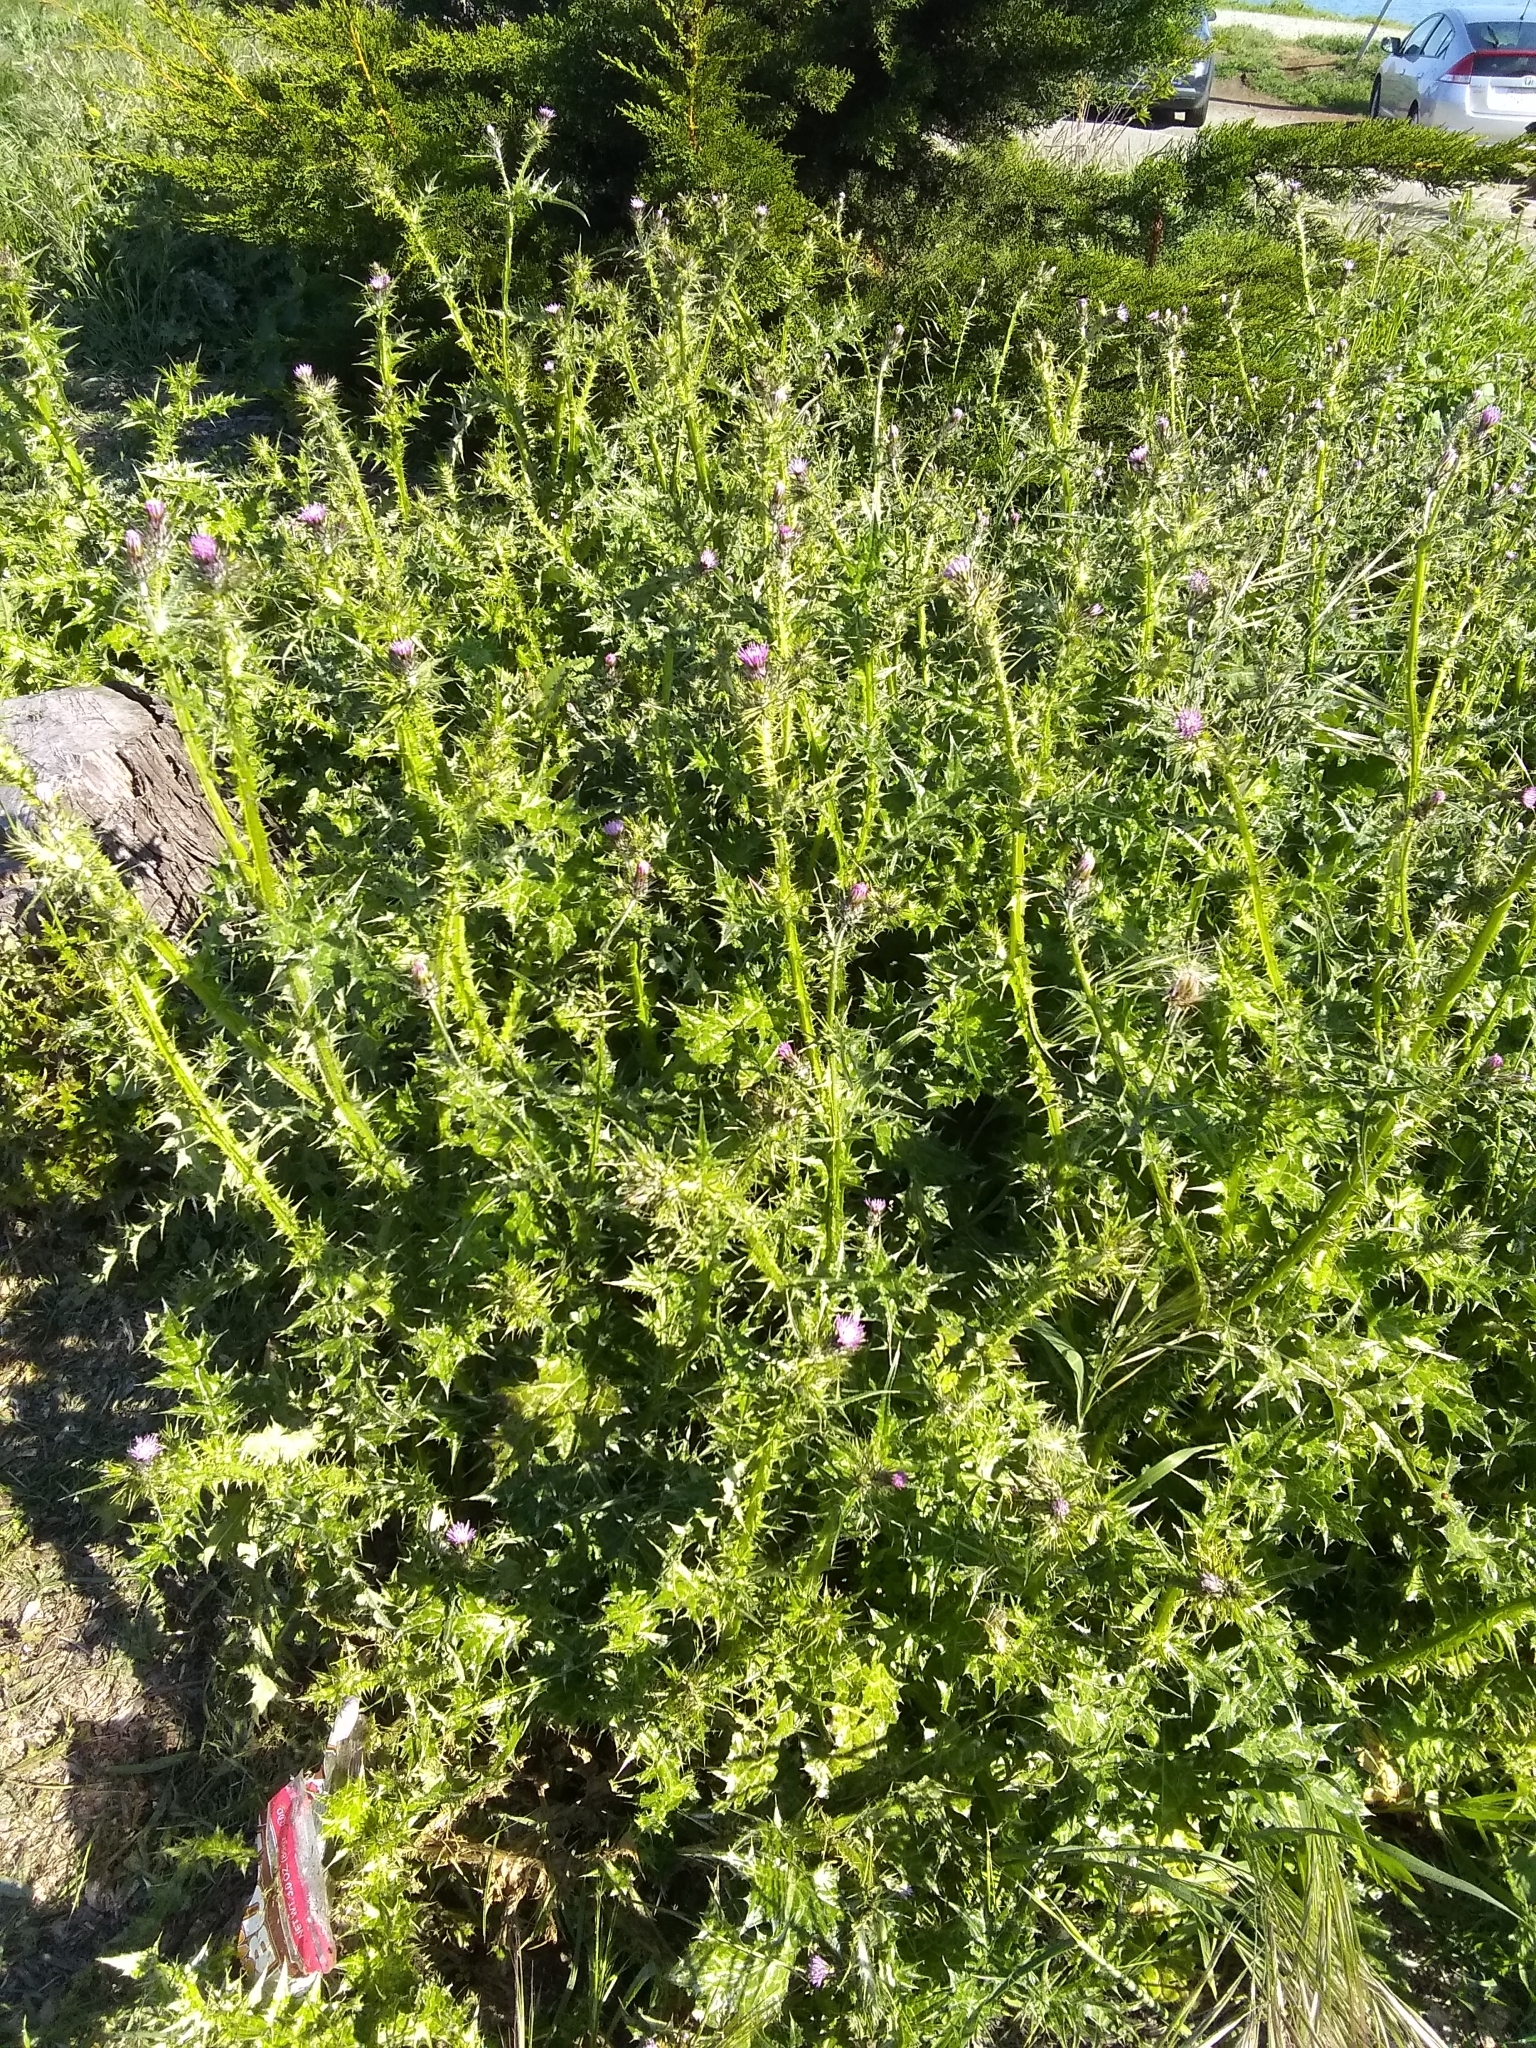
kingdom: Plantae
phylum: Tracheophyta
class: Magnoliopsida
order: Asterales
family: Asteraceae
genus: Carduus
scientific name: Carduus pycnocephalus
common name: Plymouth thistle
